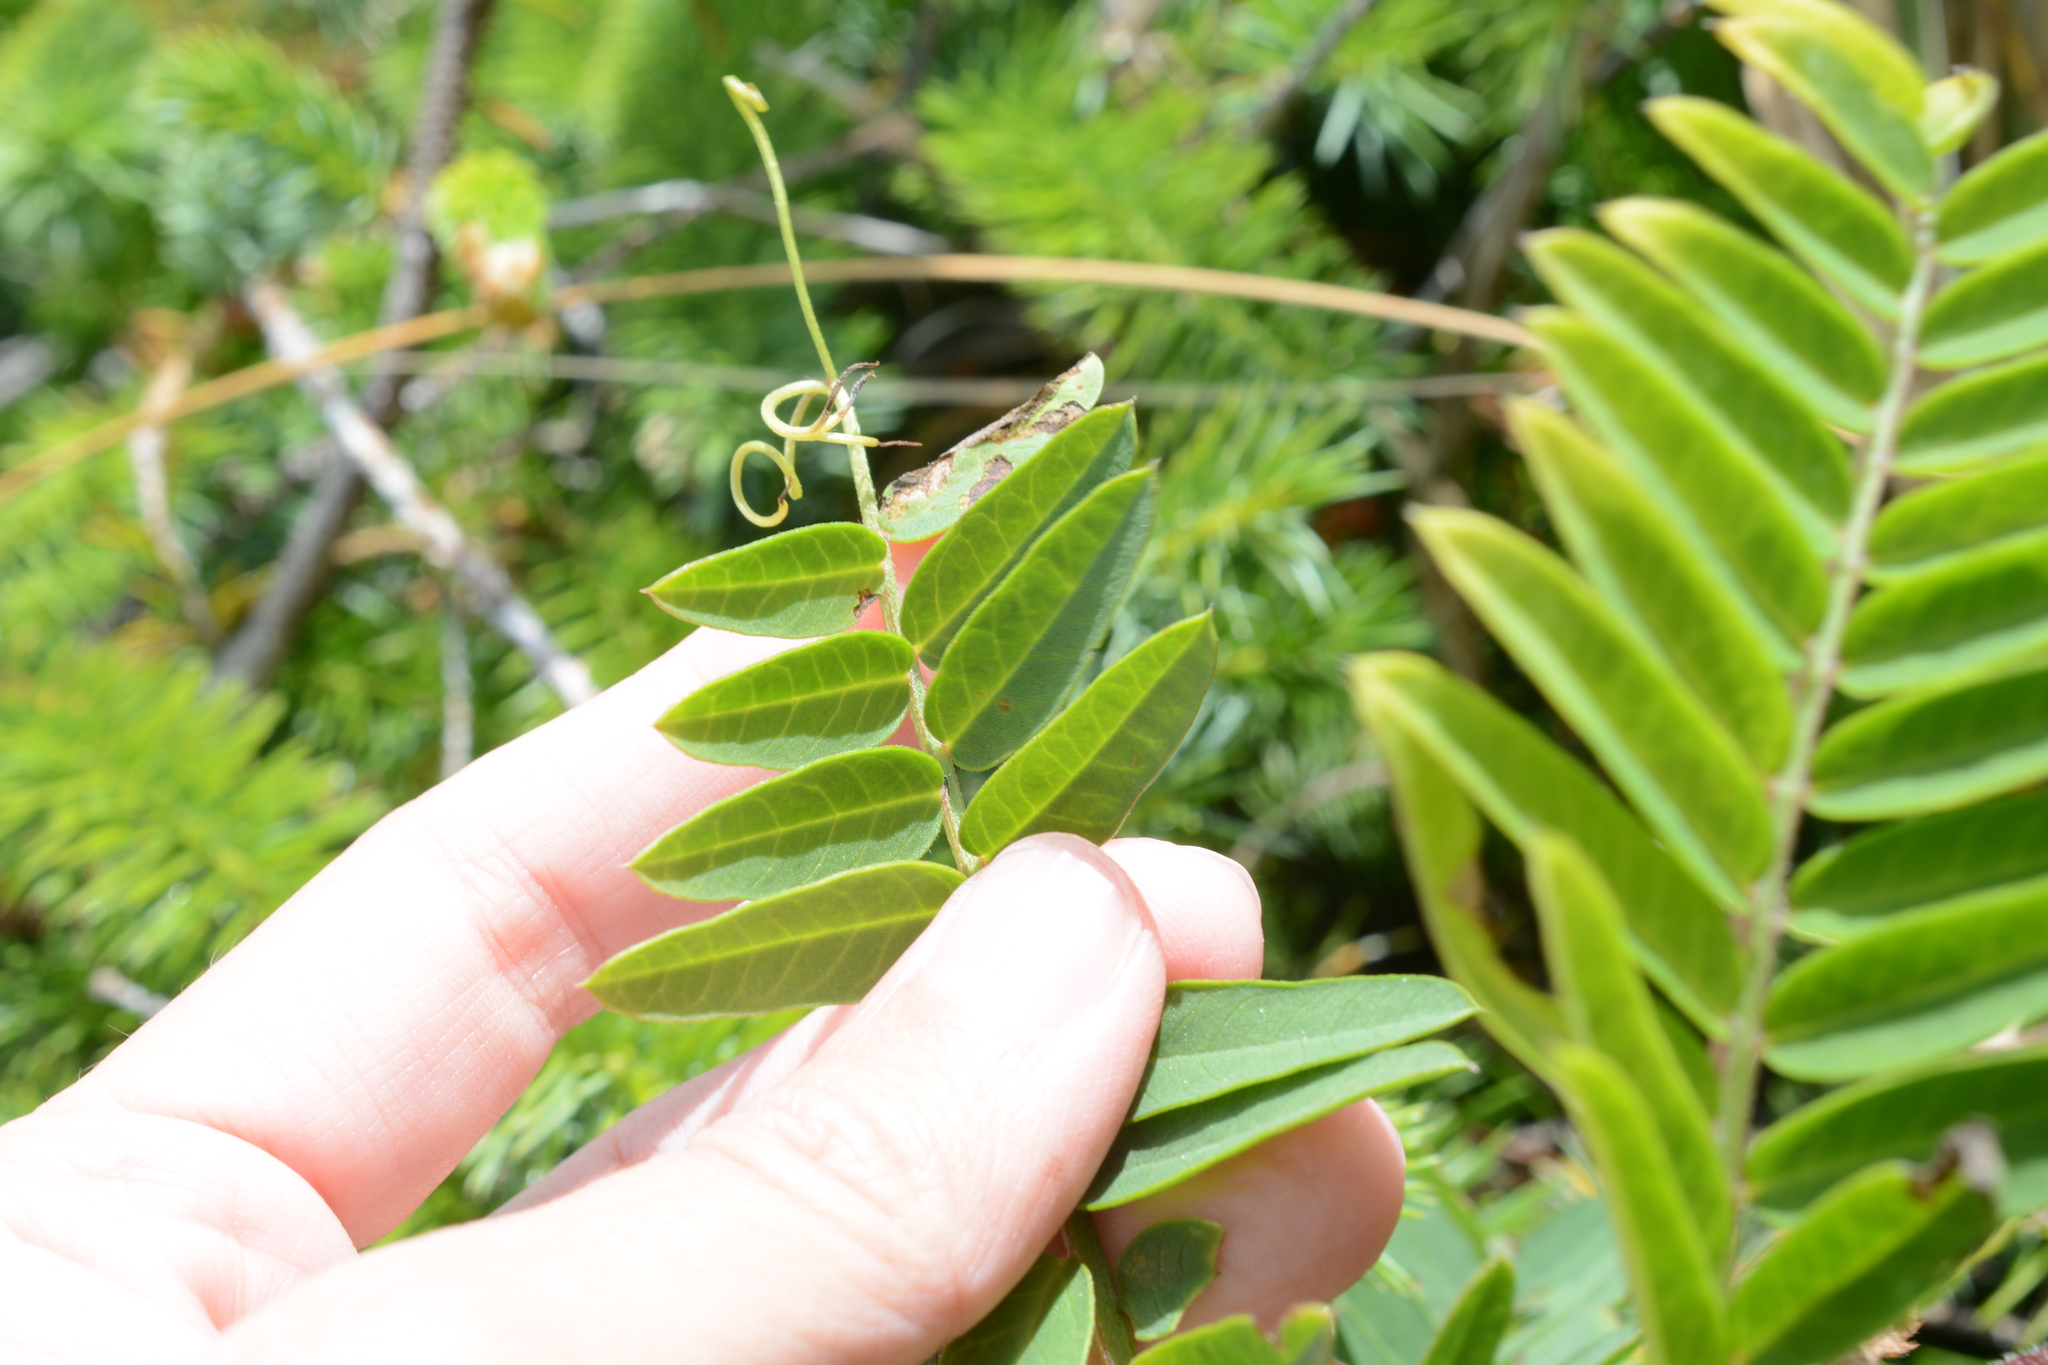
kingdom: Plantae
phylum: Tracheophyta
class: Magnoliopsida
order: Fabales
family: Fabaceae
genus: Vicia
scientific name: Vicia
